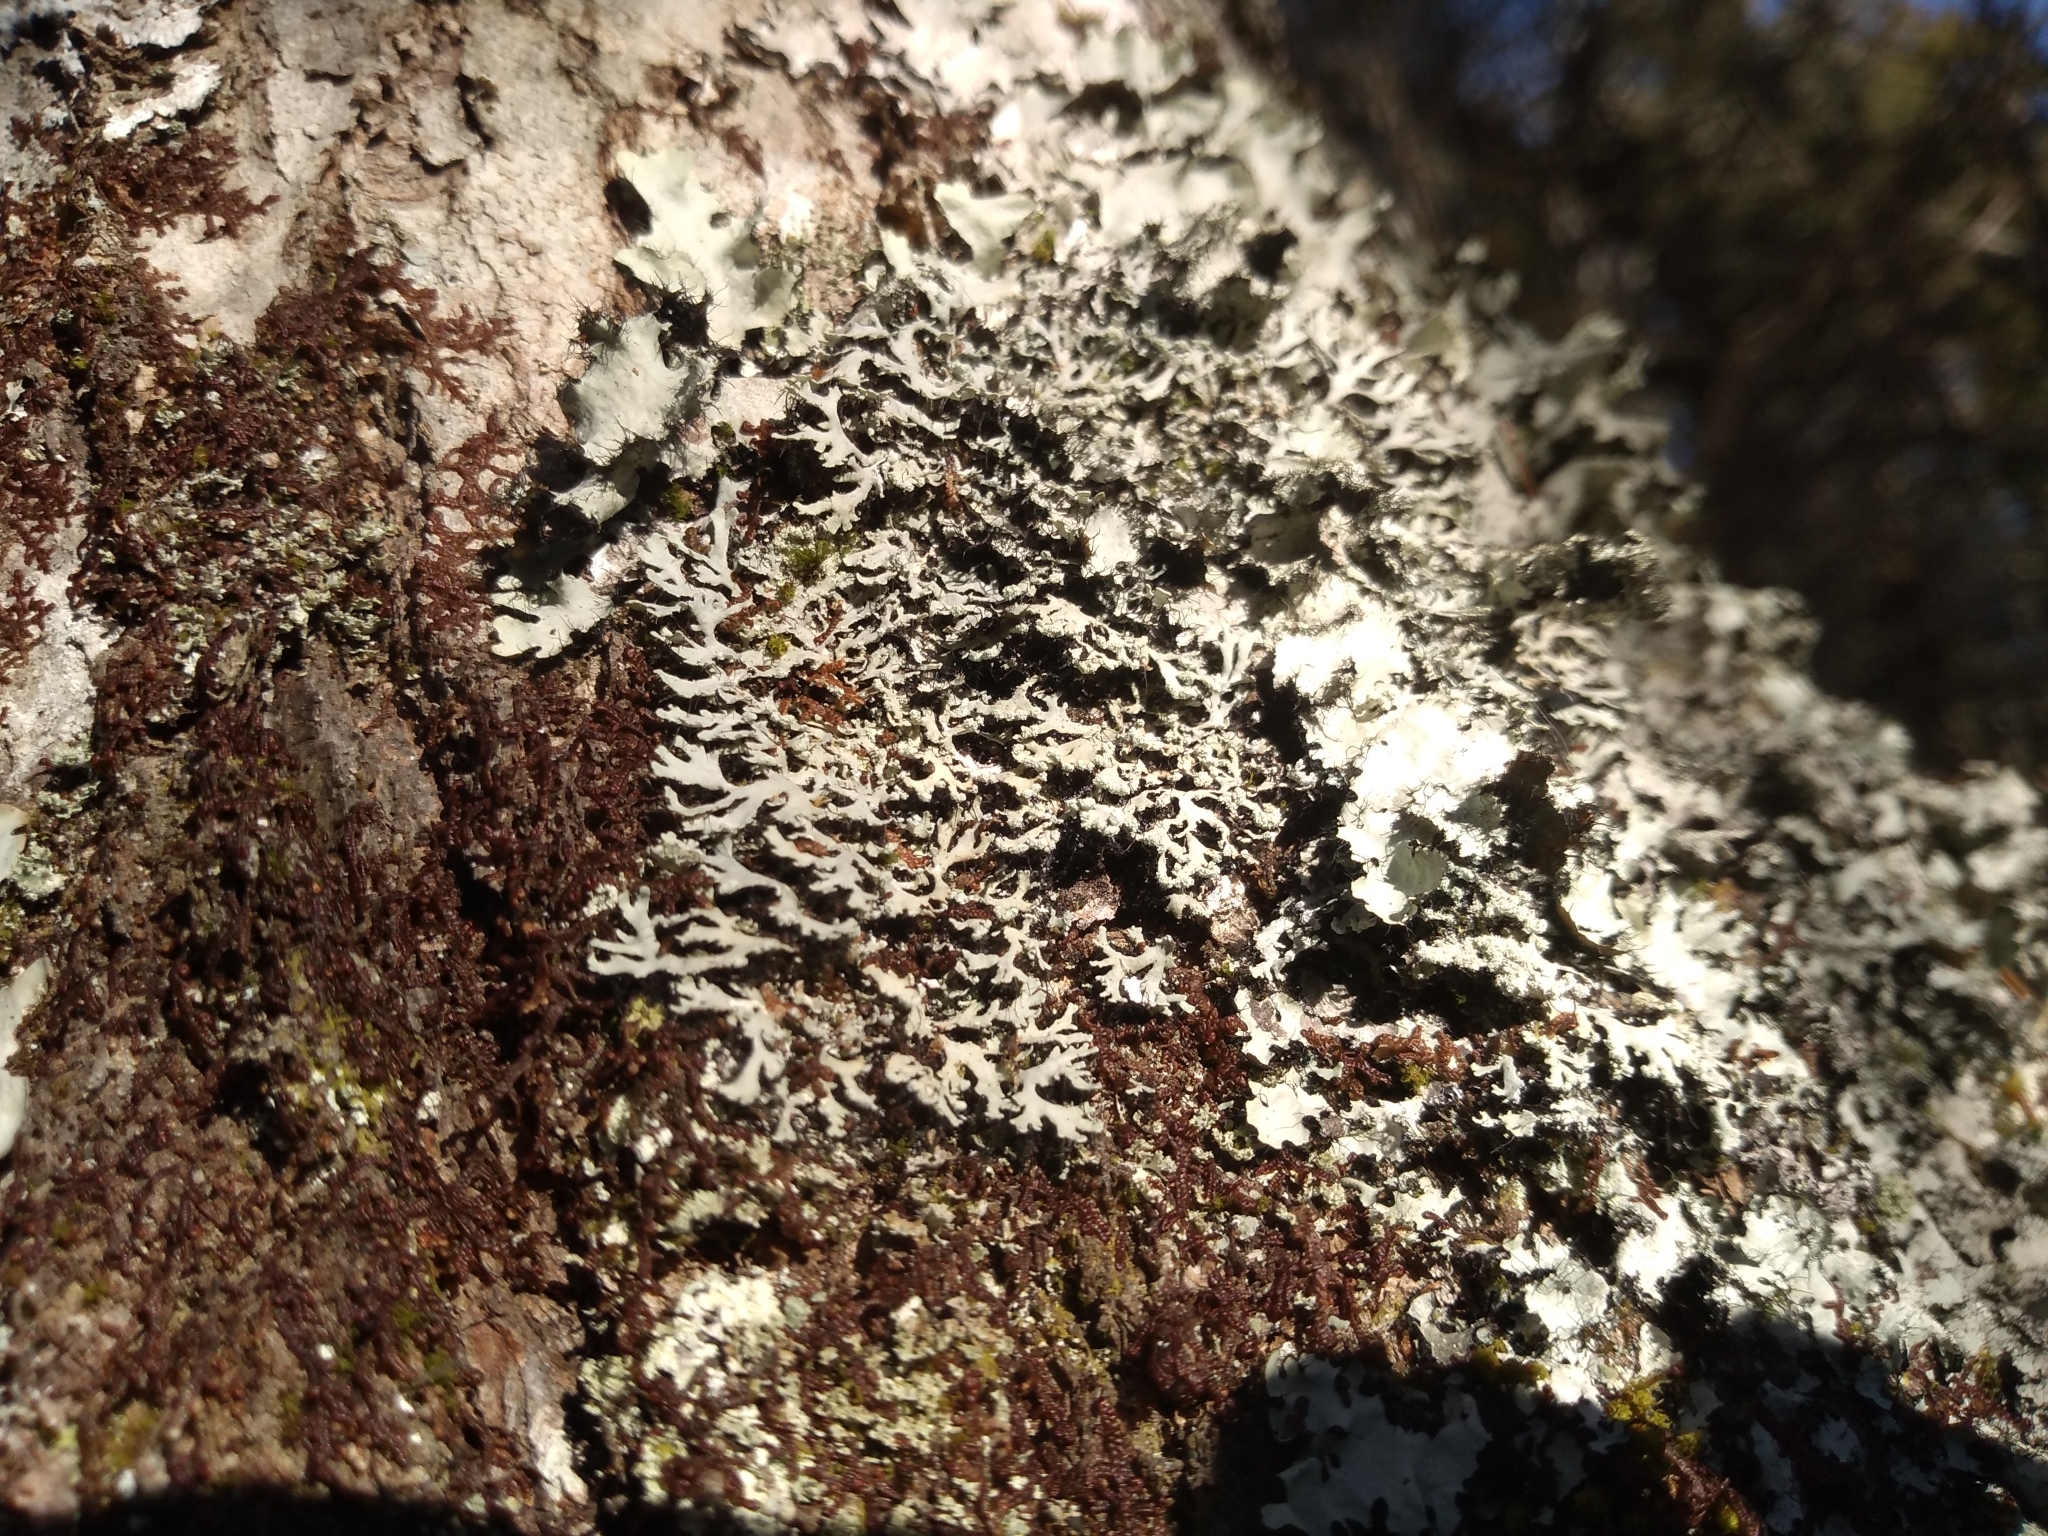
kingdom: Fungi
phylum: Ascomycota
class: Lecanoromycetes
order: Caliciales
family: Physciaceae
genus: Polyblastidium
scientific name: Polyblastidium neglectum
